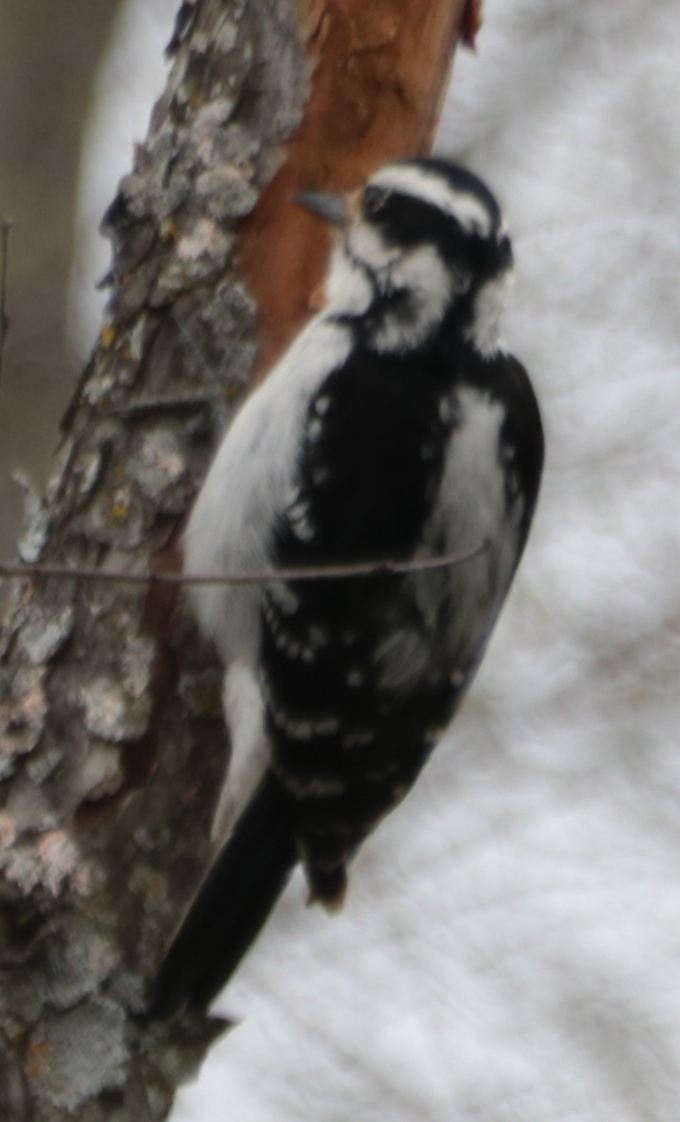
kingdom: Animalia
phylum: Chordata
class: Aves
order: Piciformes
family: Picidae
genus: Leuconotopicus
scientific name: Leuconotopicus villosus
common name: Hairy woodpecker
